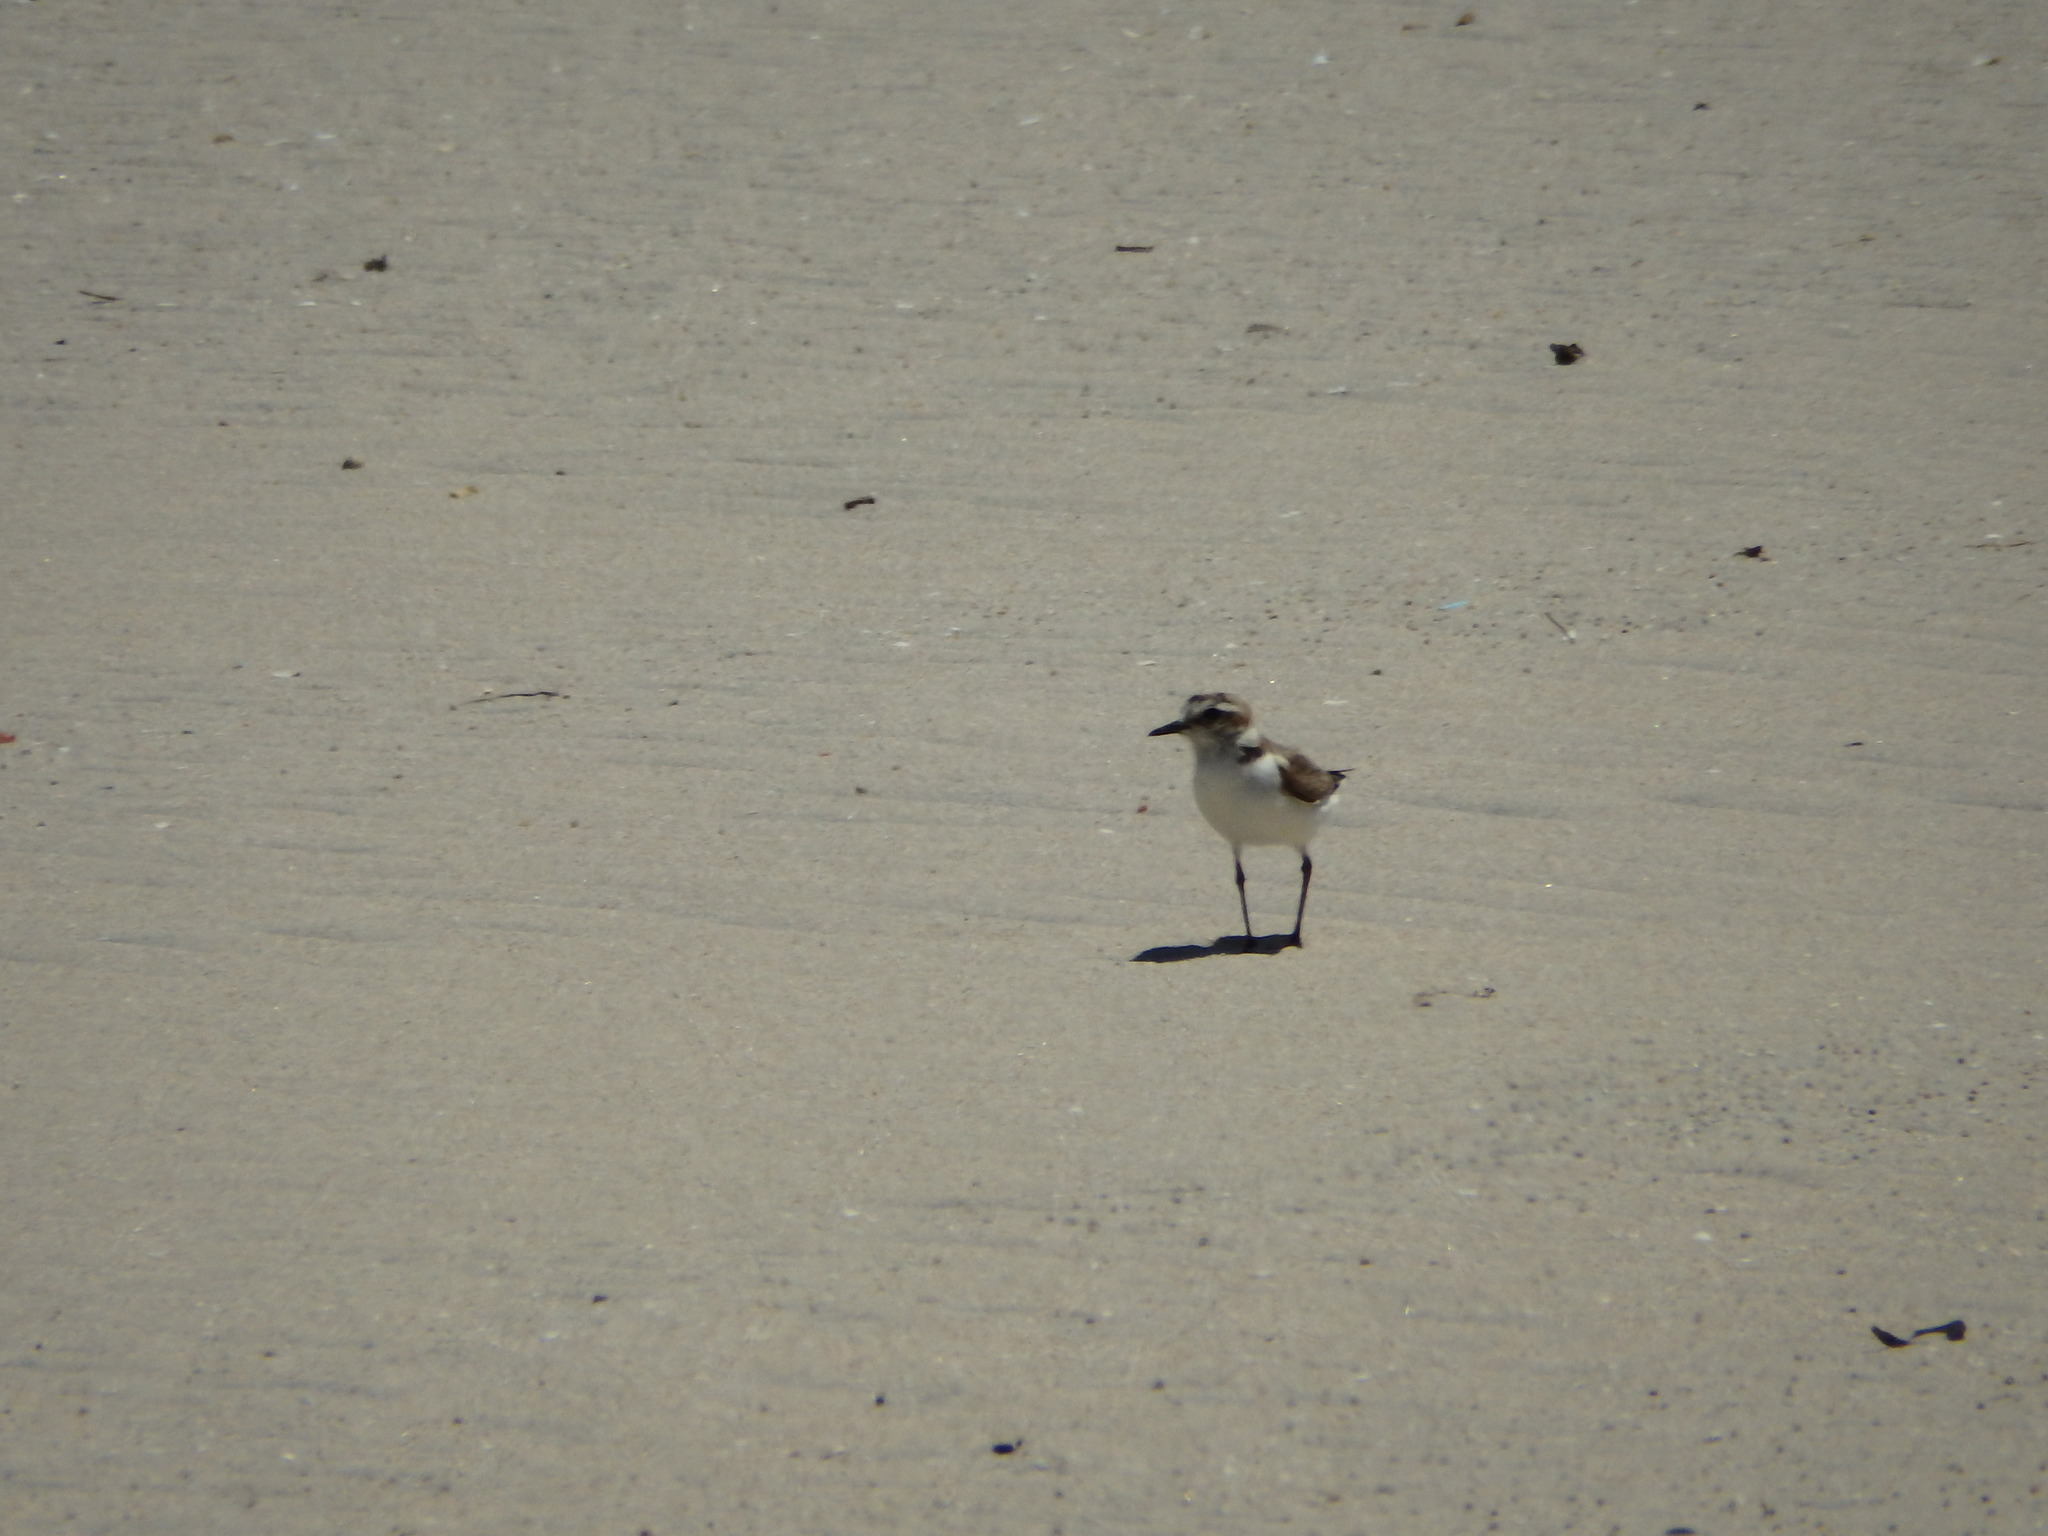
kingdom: Animalia
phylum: Chordata
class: Aves
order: Charadriiformes
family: Charadriidae
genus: Charadrius
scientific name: Charadrius alexandrinus
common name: Kentish plover
